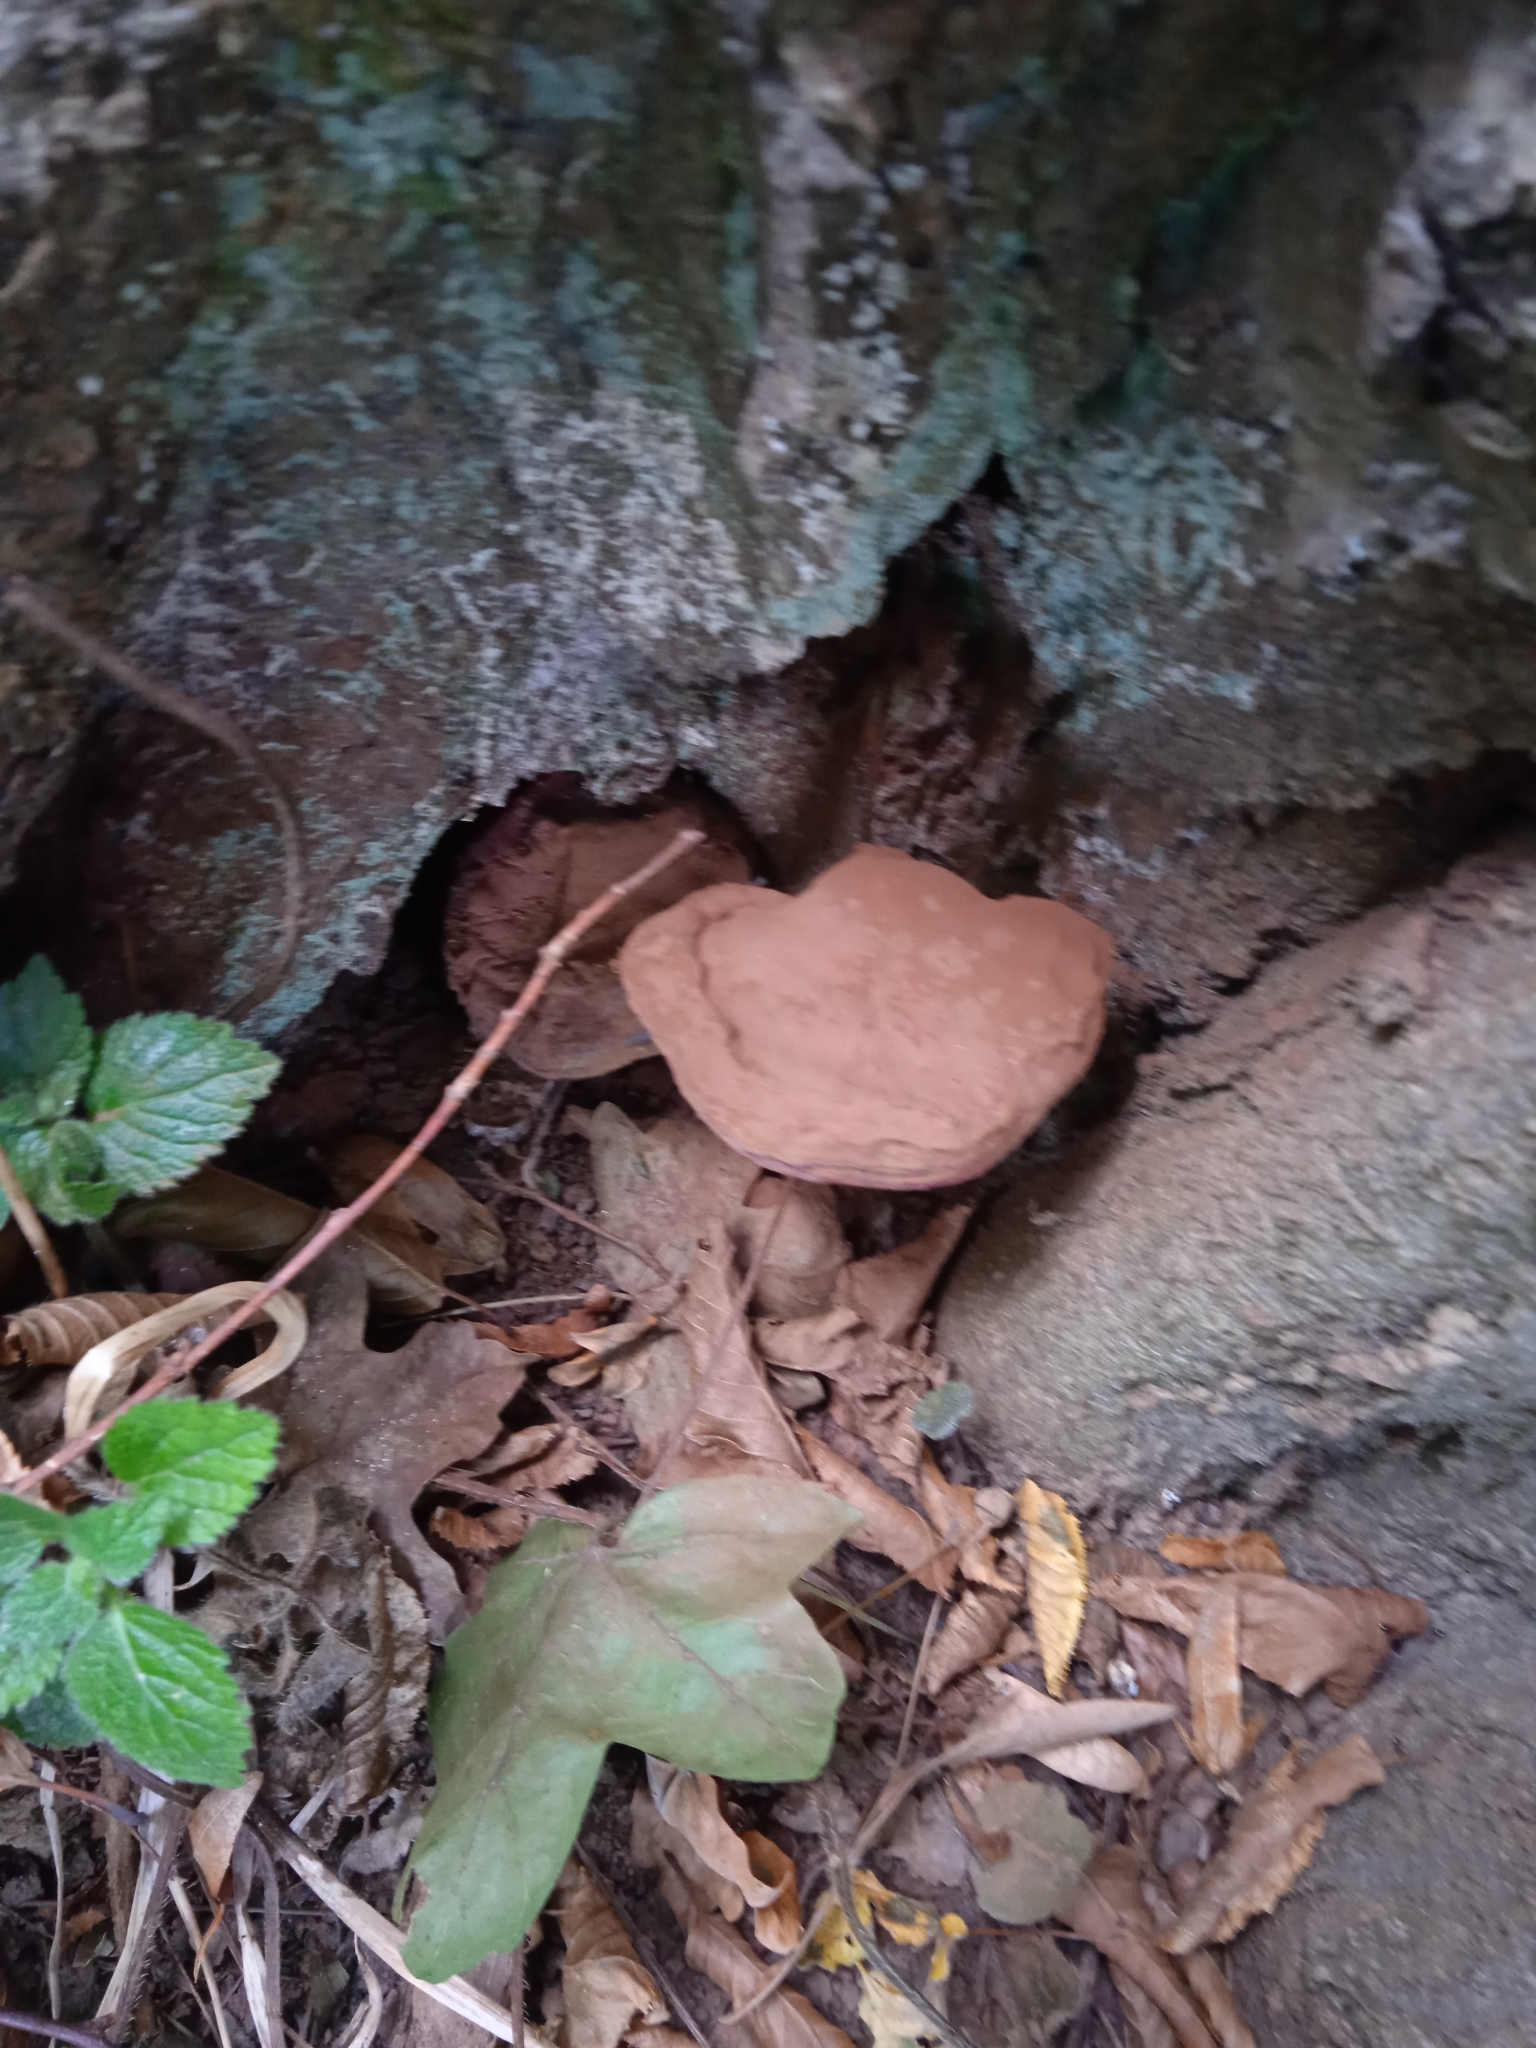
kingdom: Fungi
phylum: Basidiomycota
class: Agaricomycetes
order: Polyporales
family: Polyporaceae
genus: Ganoderma
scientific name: Ganoderma lucidum
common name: Lacquered bracket
